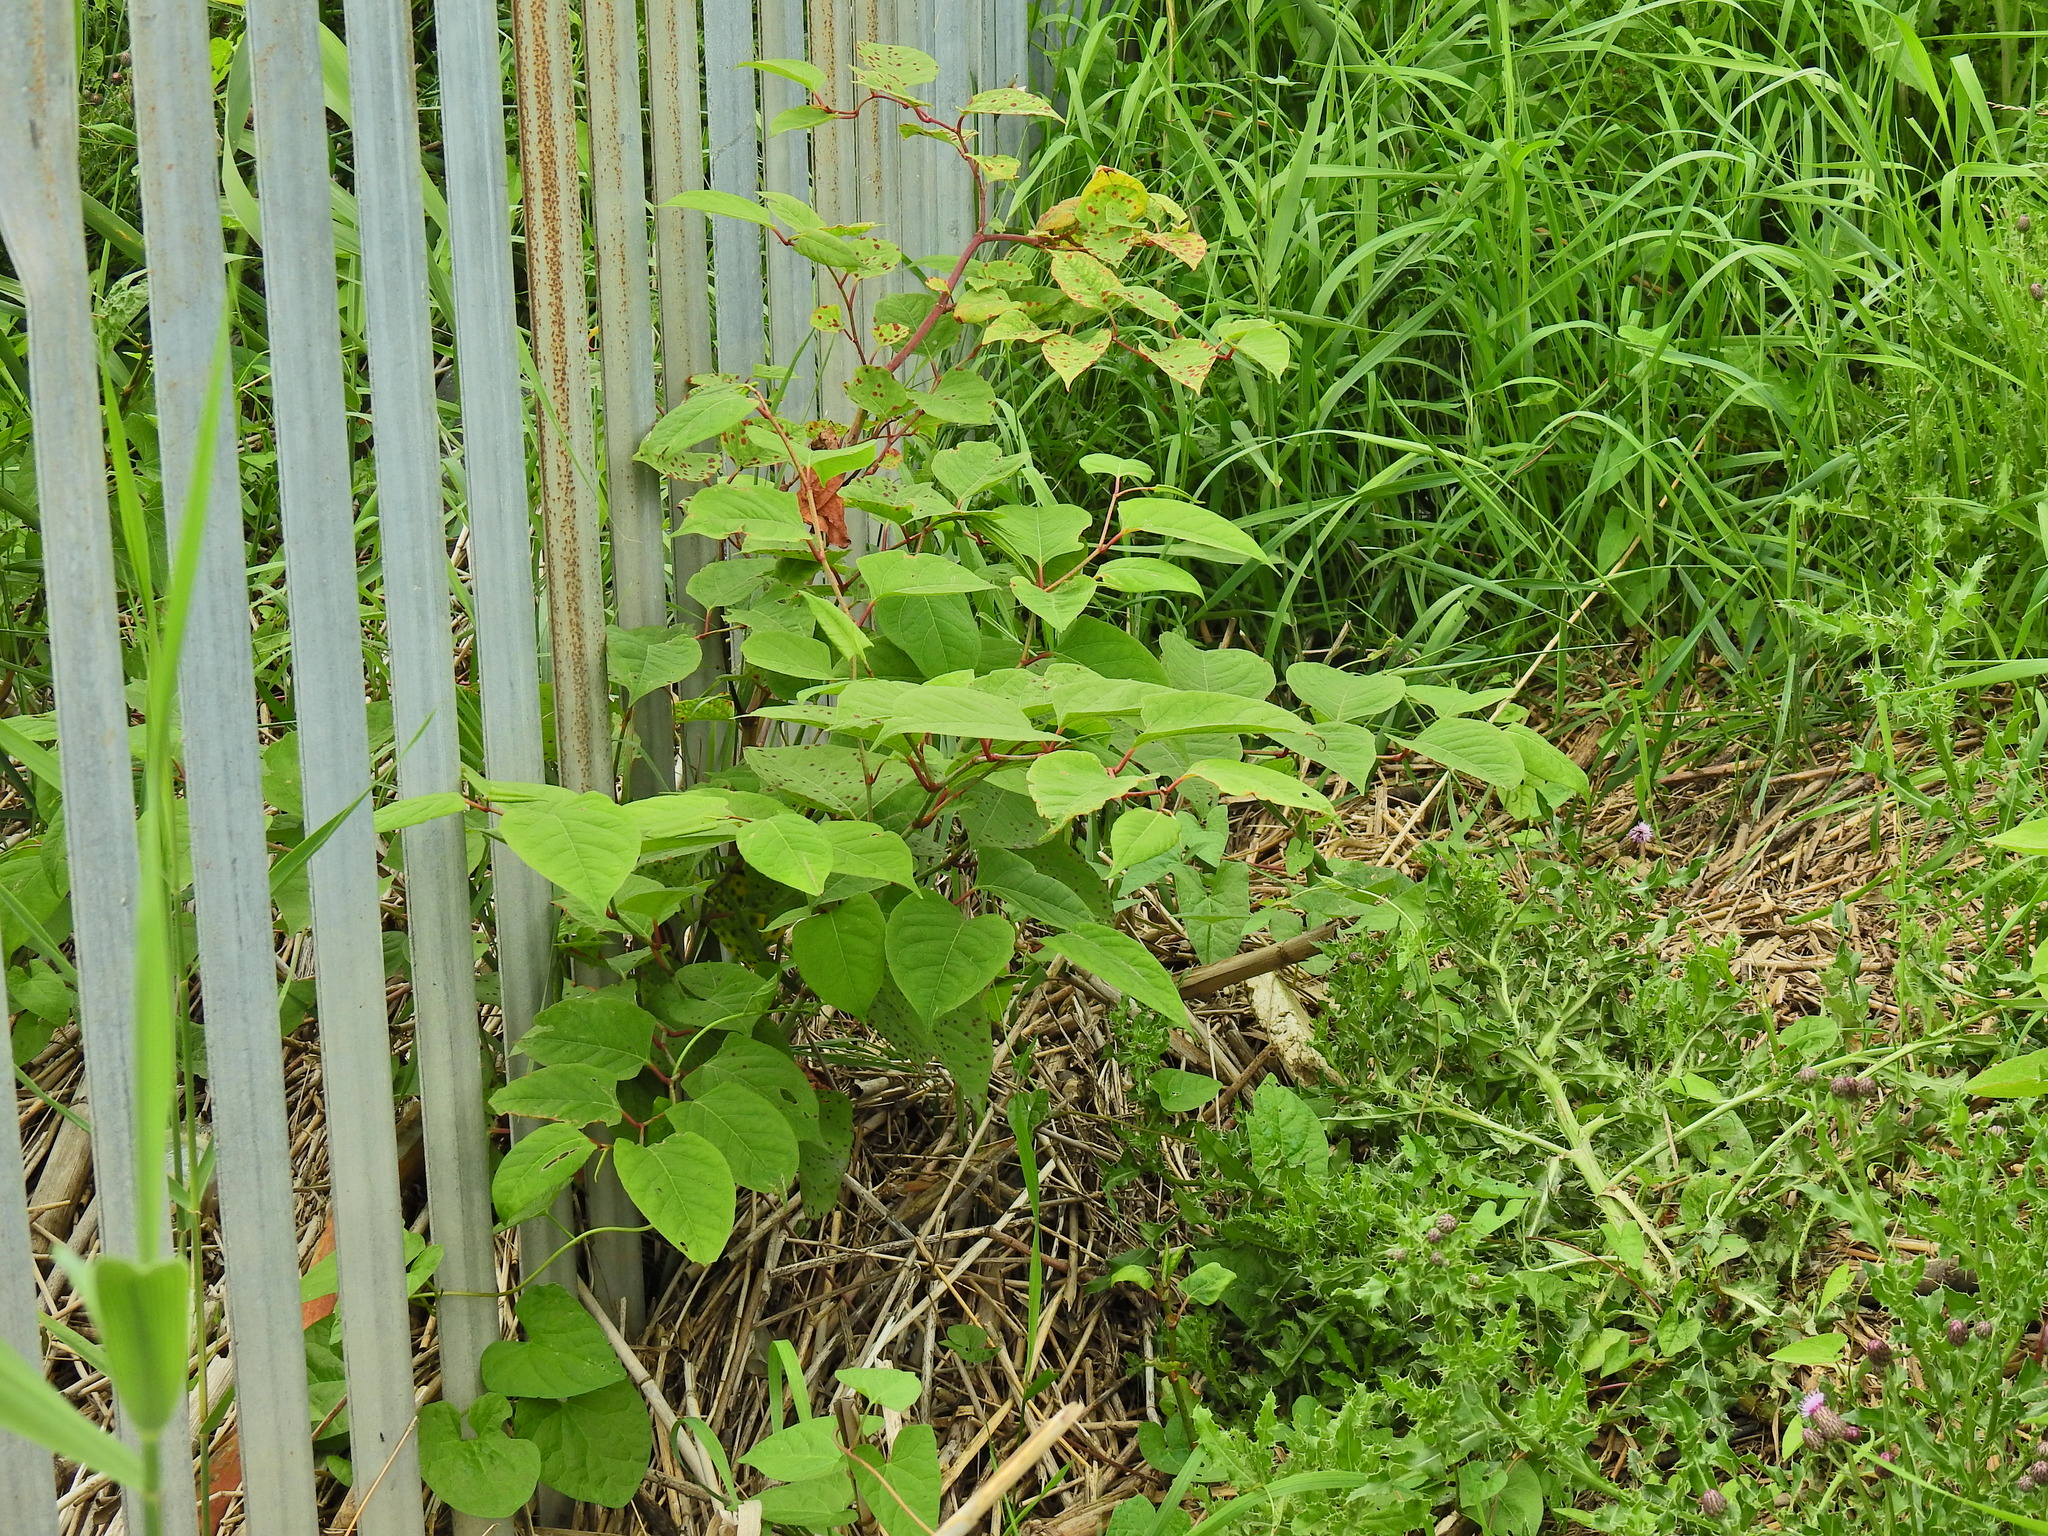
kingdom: Plantae
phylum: Tracheophyta
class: Magnoliopsida
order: Caryophyllales
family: Polygonaceae
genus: Reynoutria
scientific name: Reynoutria japonica
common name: Japanese knotweed
